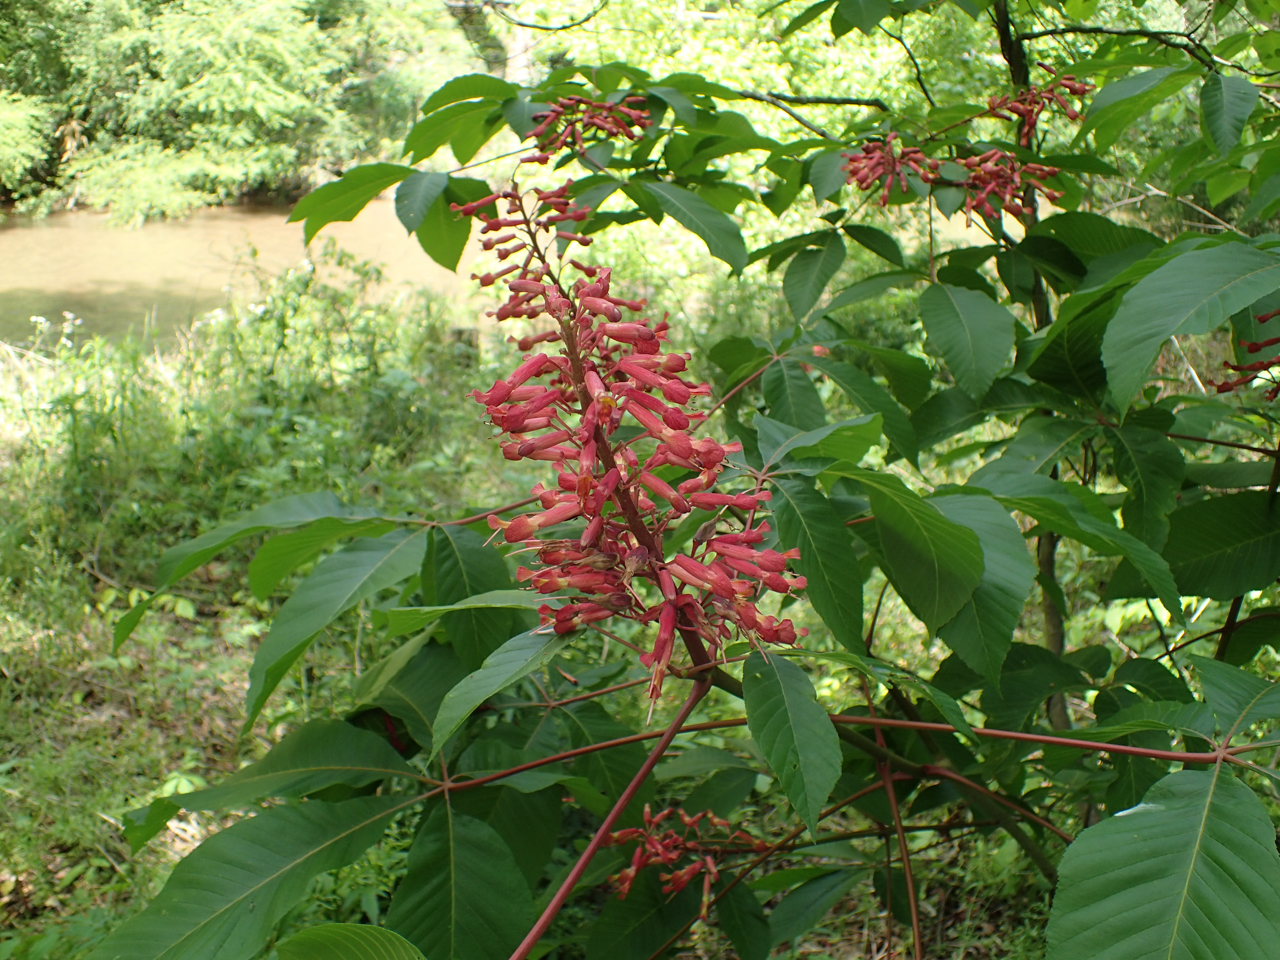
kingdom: Plantae
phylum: Tracheophyta
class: Magnoliopsida
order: Sapindales
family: Sapindaceae
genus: Aesculus
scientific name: Aesculus pavia
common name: Red buckeye
